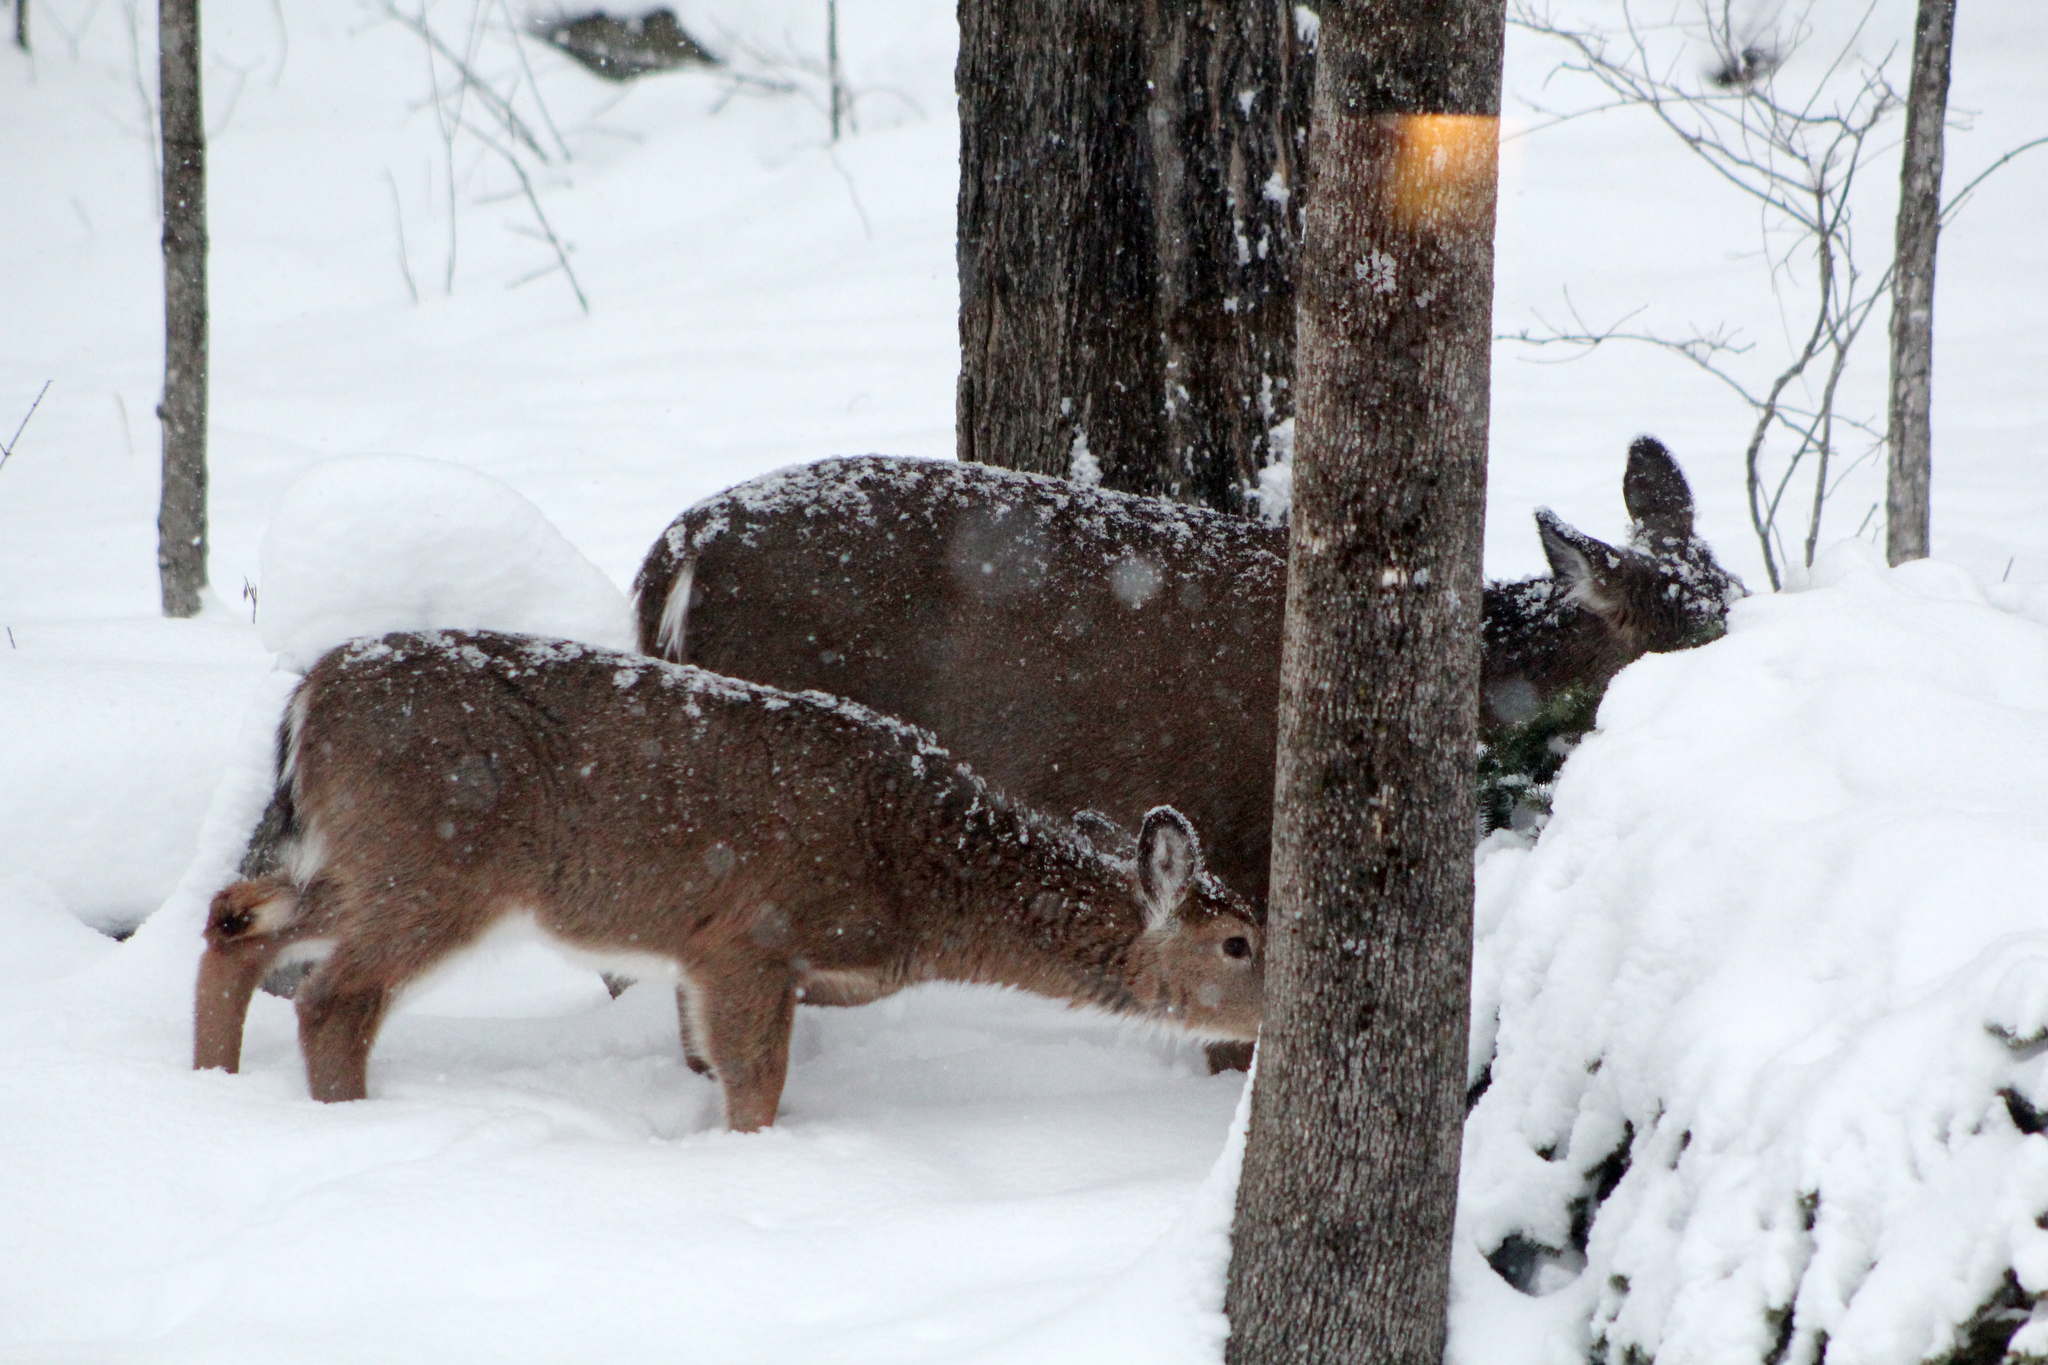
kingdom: Animalia
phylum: Chordata
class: Mammalia
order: Artiodactyla
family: Cervidae
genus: Odocoileus
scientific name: Odocoileus virginianus
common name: White-tailed deer
